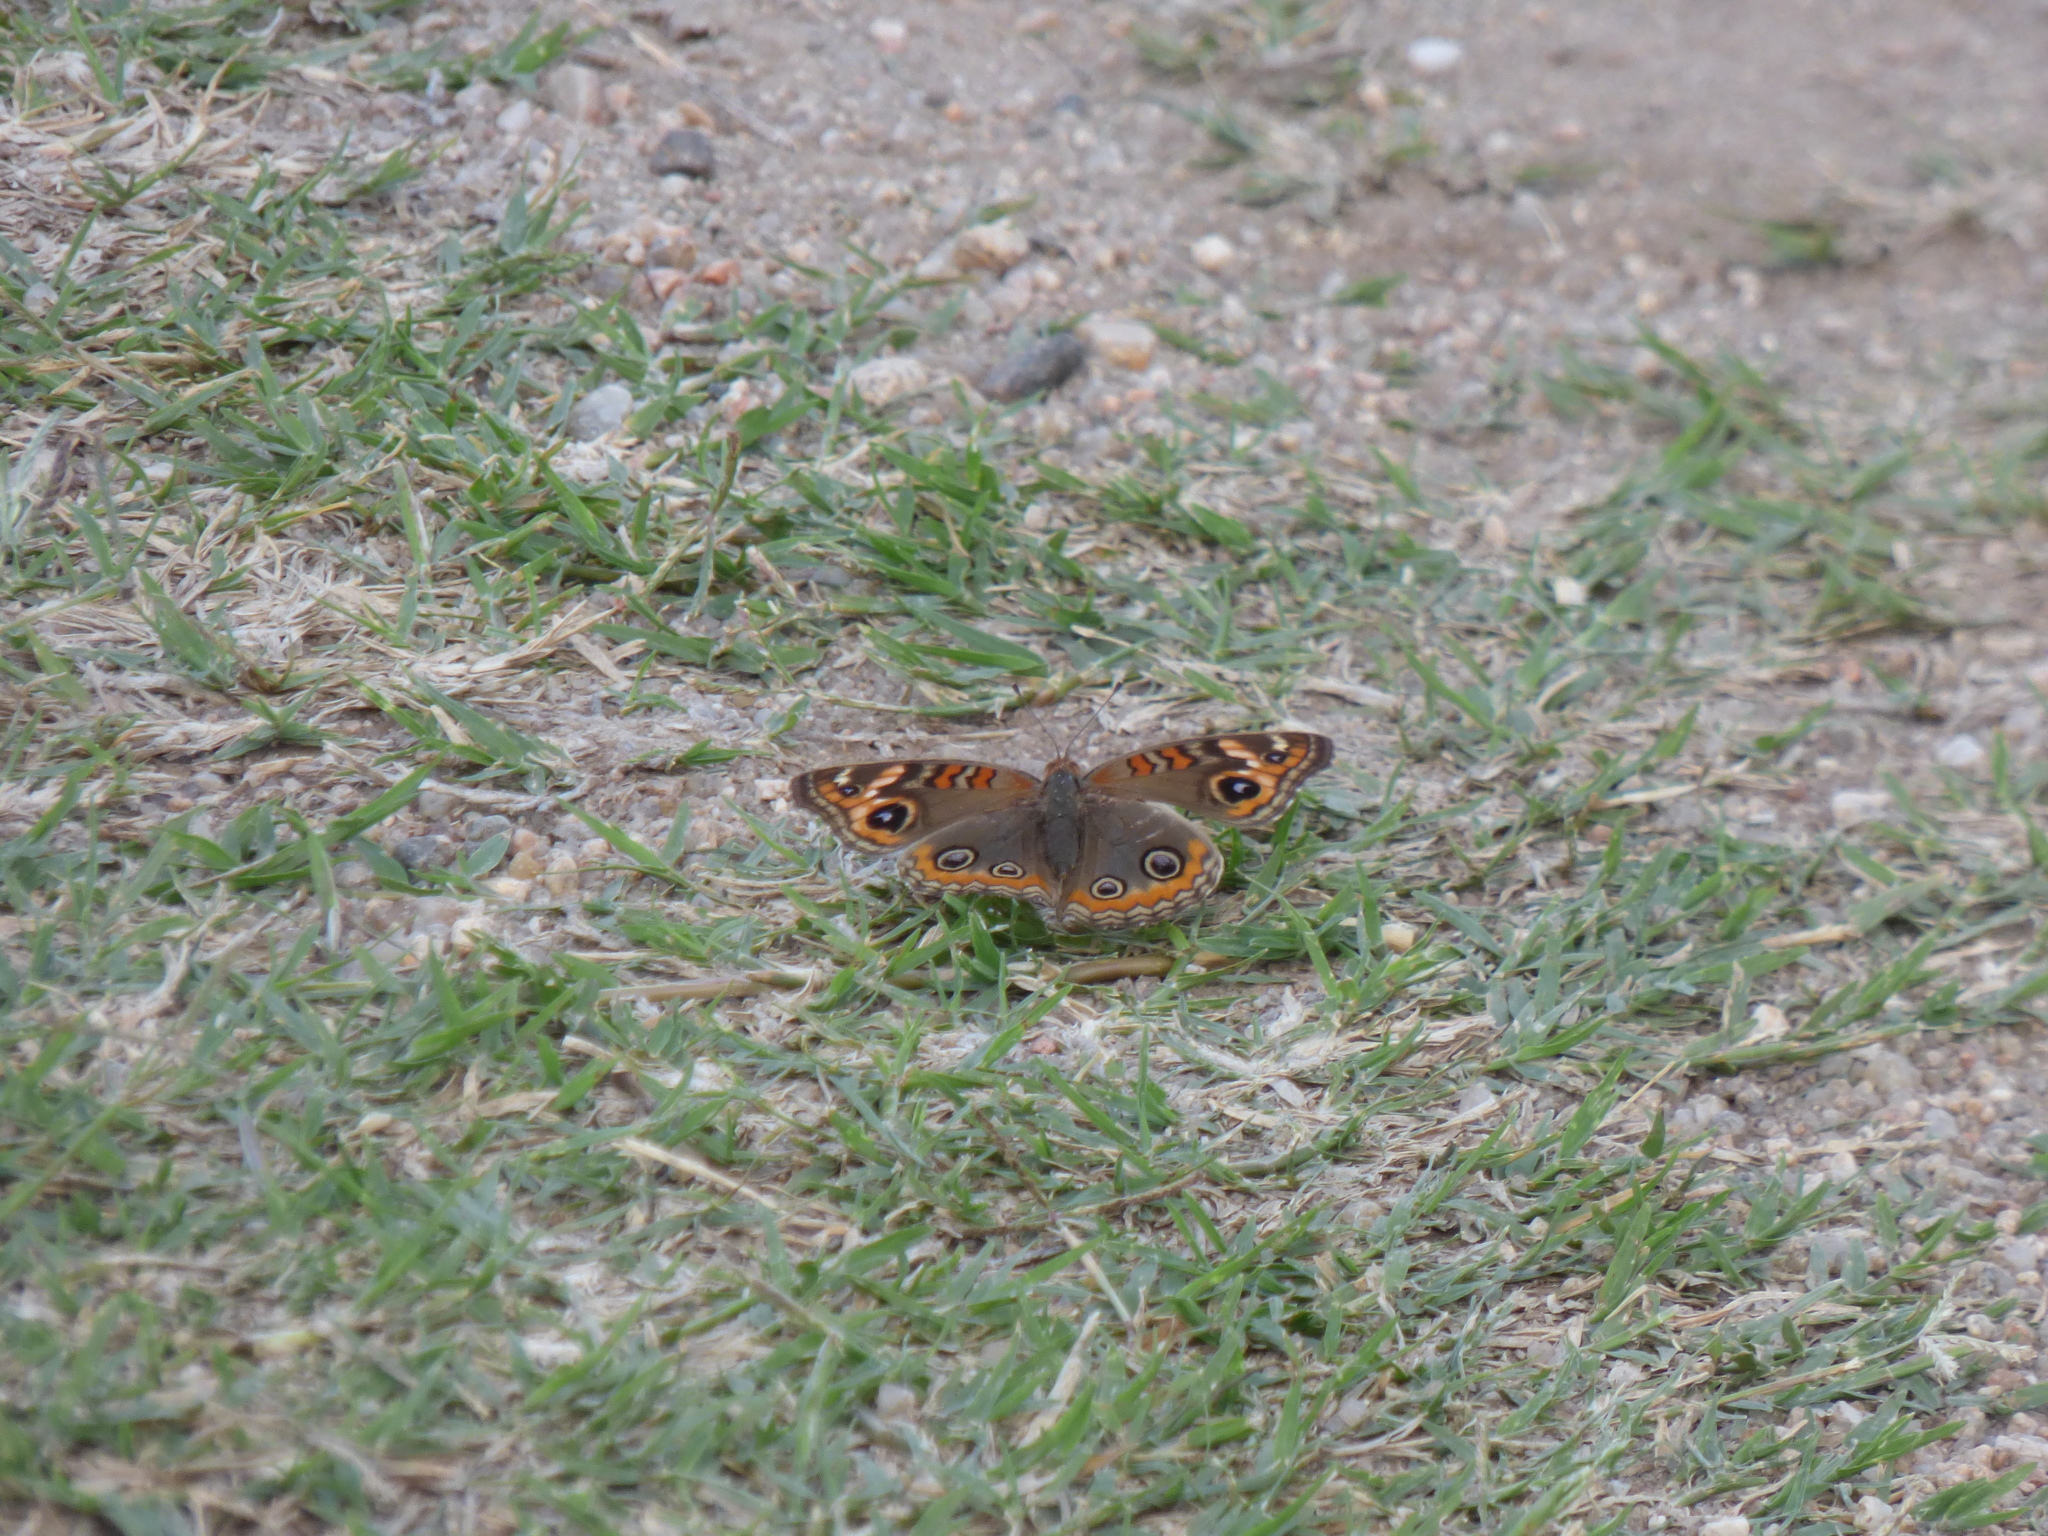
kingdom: Animalia
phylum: Arthropoda
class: Insecta
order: Lepidoptera
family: Nymphalidae
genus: Junonia
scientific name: Junonia lavinia
